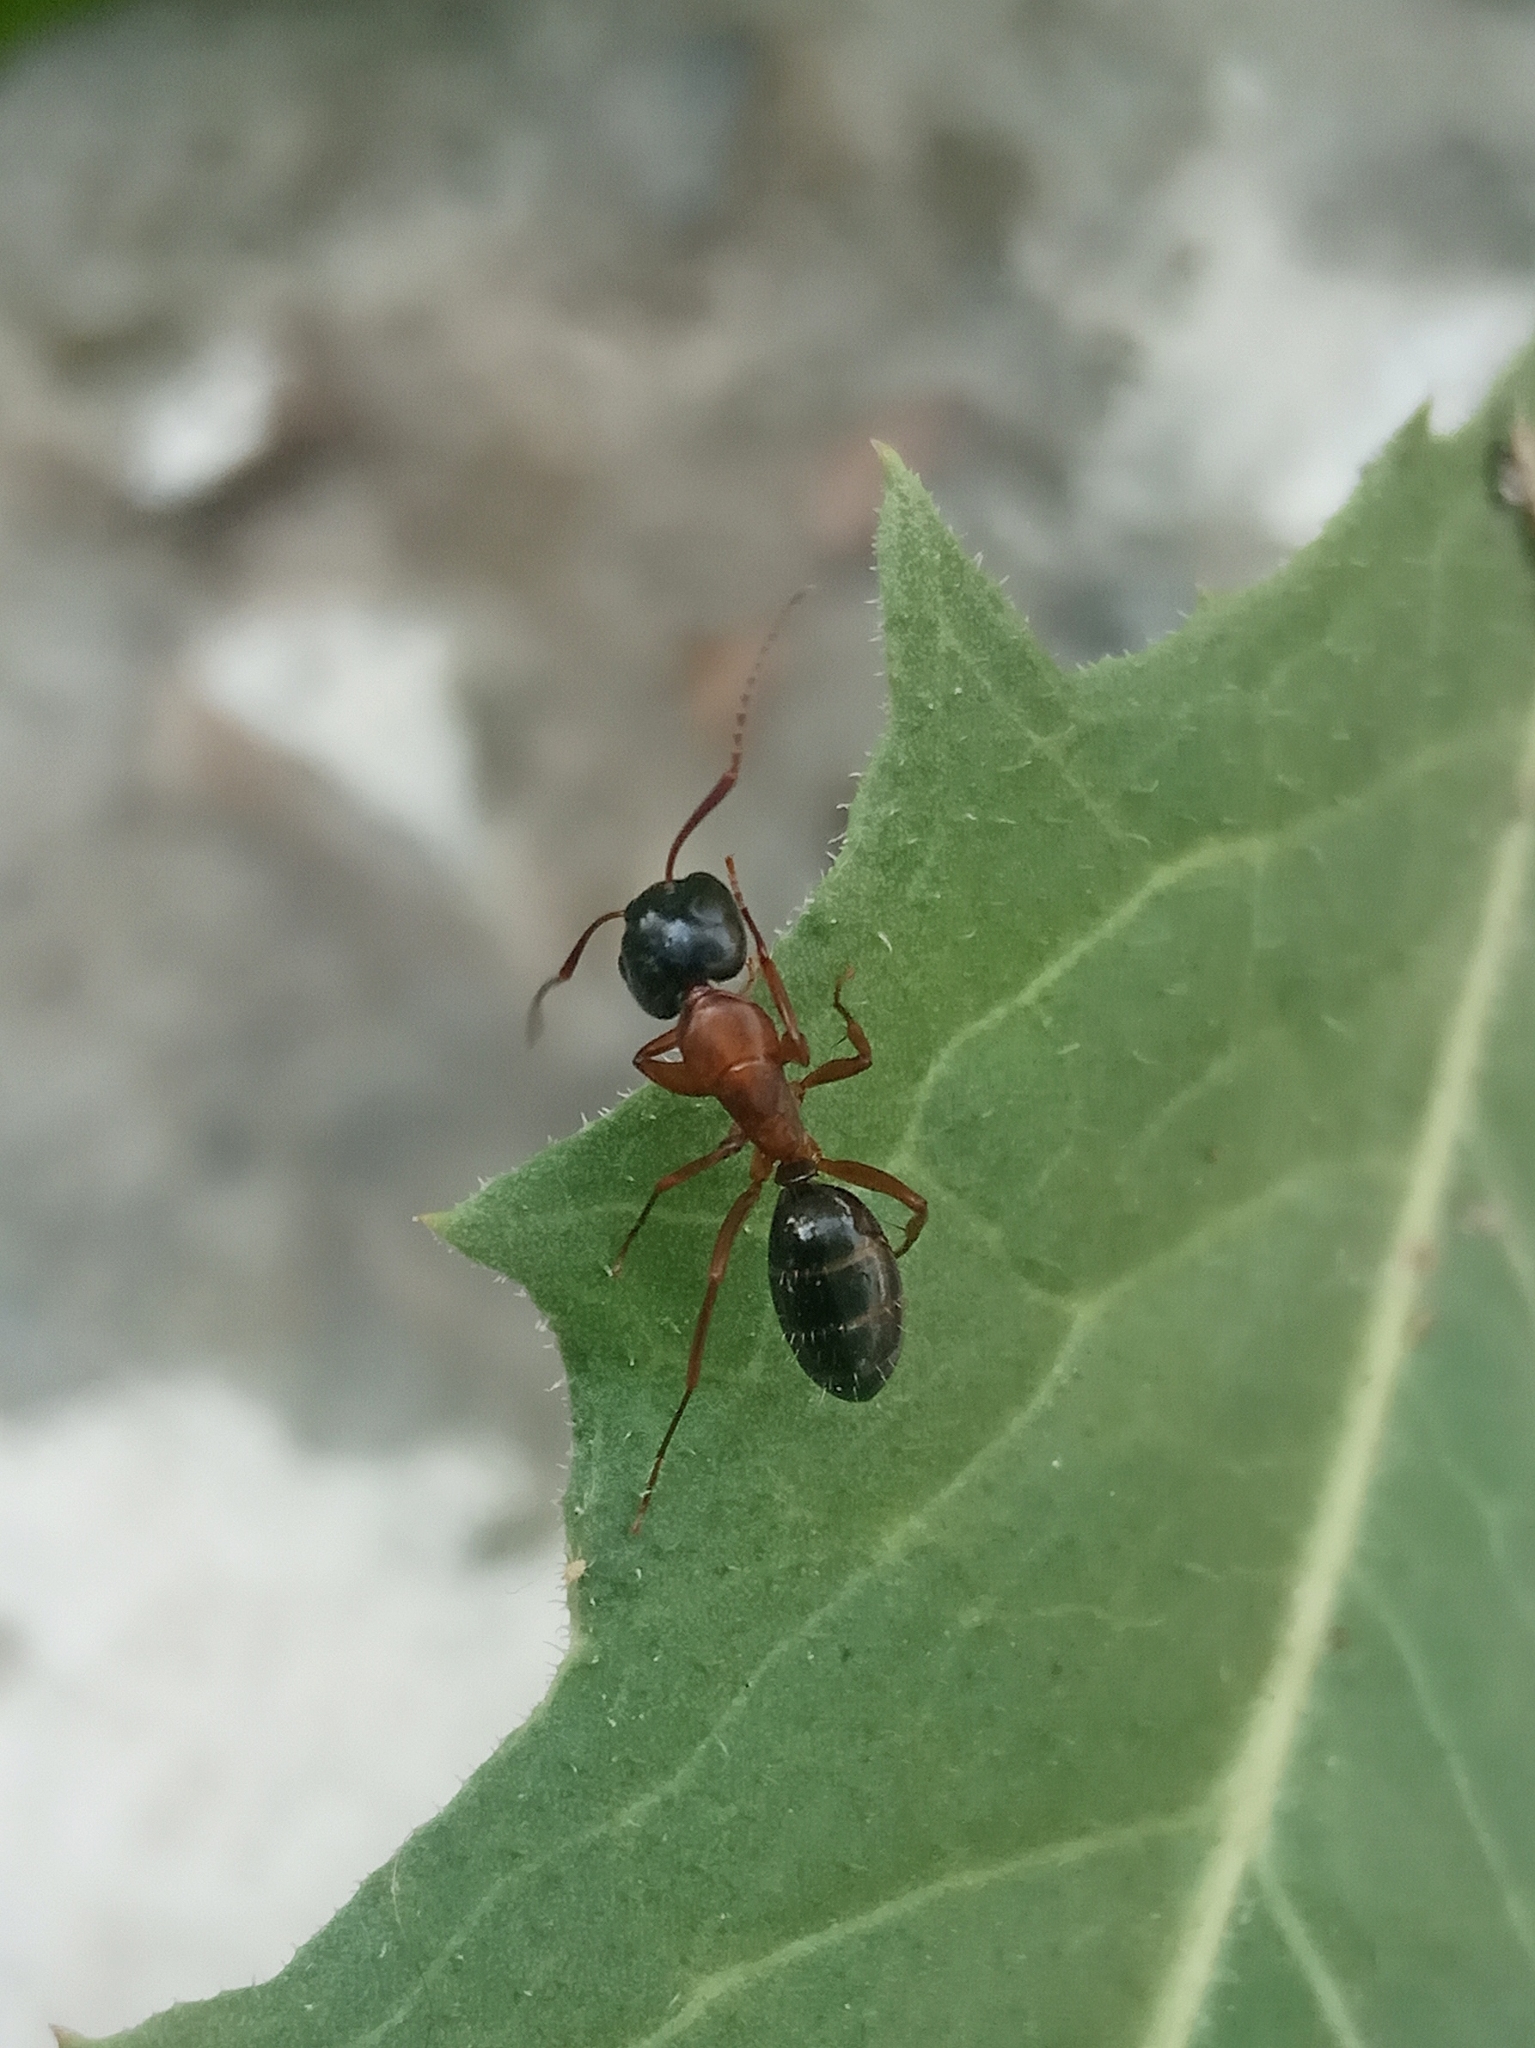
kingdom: Animalia
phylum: Arthropoda
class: Insecta
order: Hymenoptera
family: Formicidae
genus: Camponotus
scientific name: Camponotus fallax
